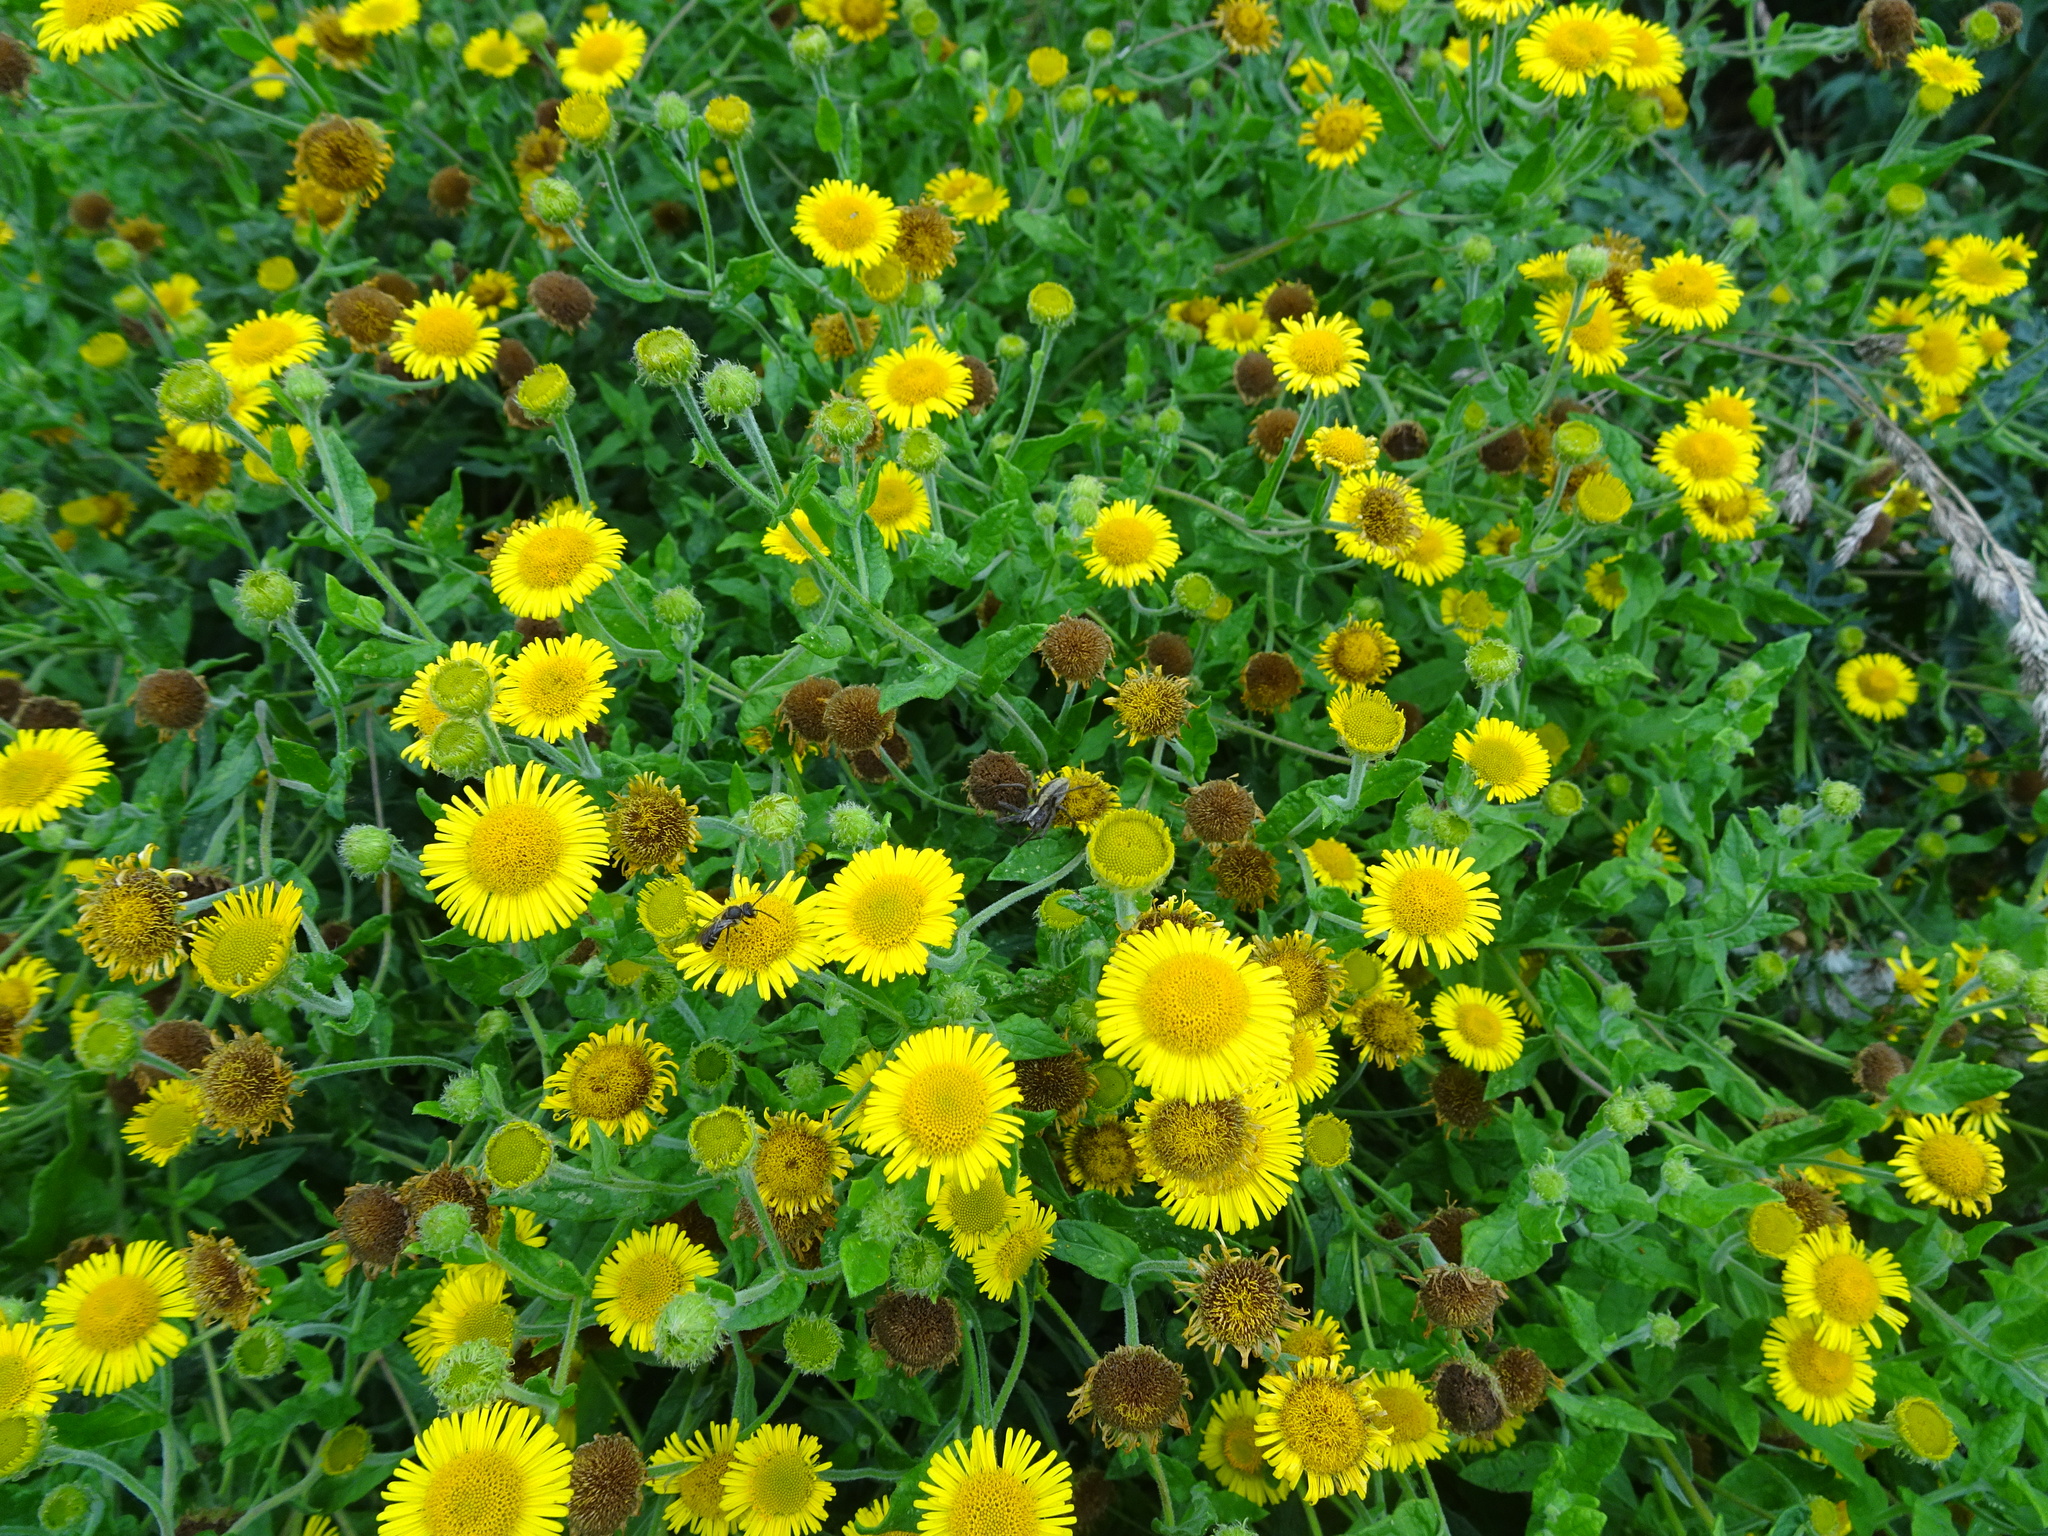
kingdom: Plantae
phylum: Tracheophyta
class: Magnoliopsida
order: Asterales
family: Asteraceae
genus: Pulicaria
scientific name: Pulicaria dysenterica
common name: Common fleabane
